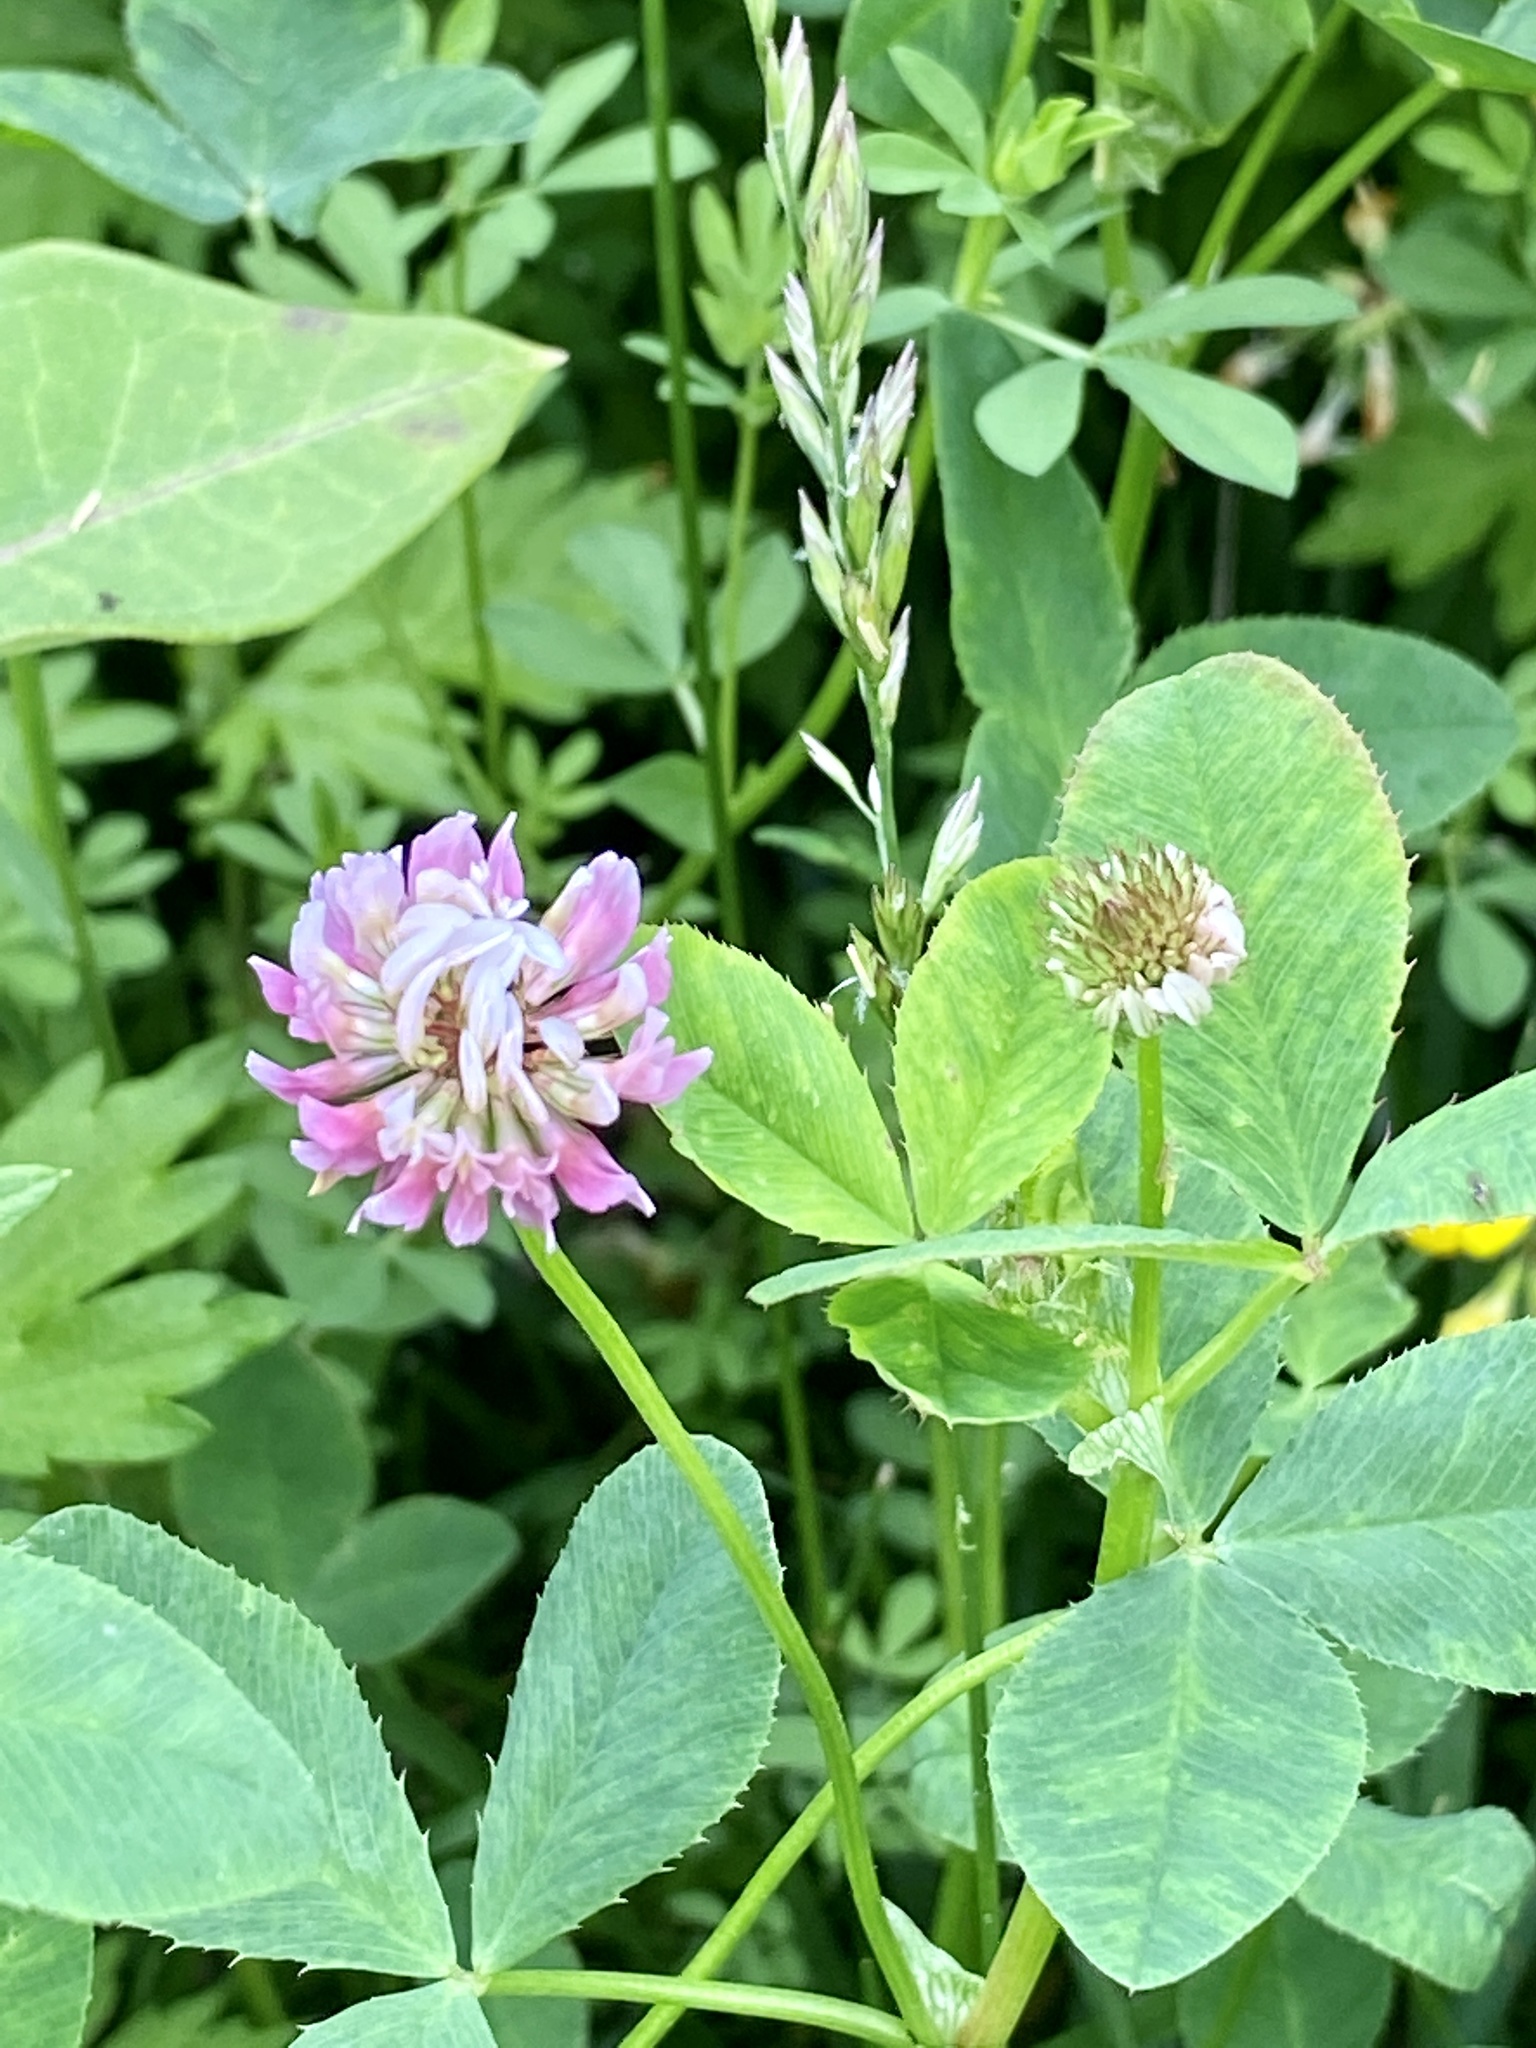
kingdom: Plantae
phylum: Tracheophyta
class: Magnoliopsida
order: Fabales
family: Fabaceae
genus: Trifolium
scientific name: Trifolium hybridum
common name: Alsike clover
